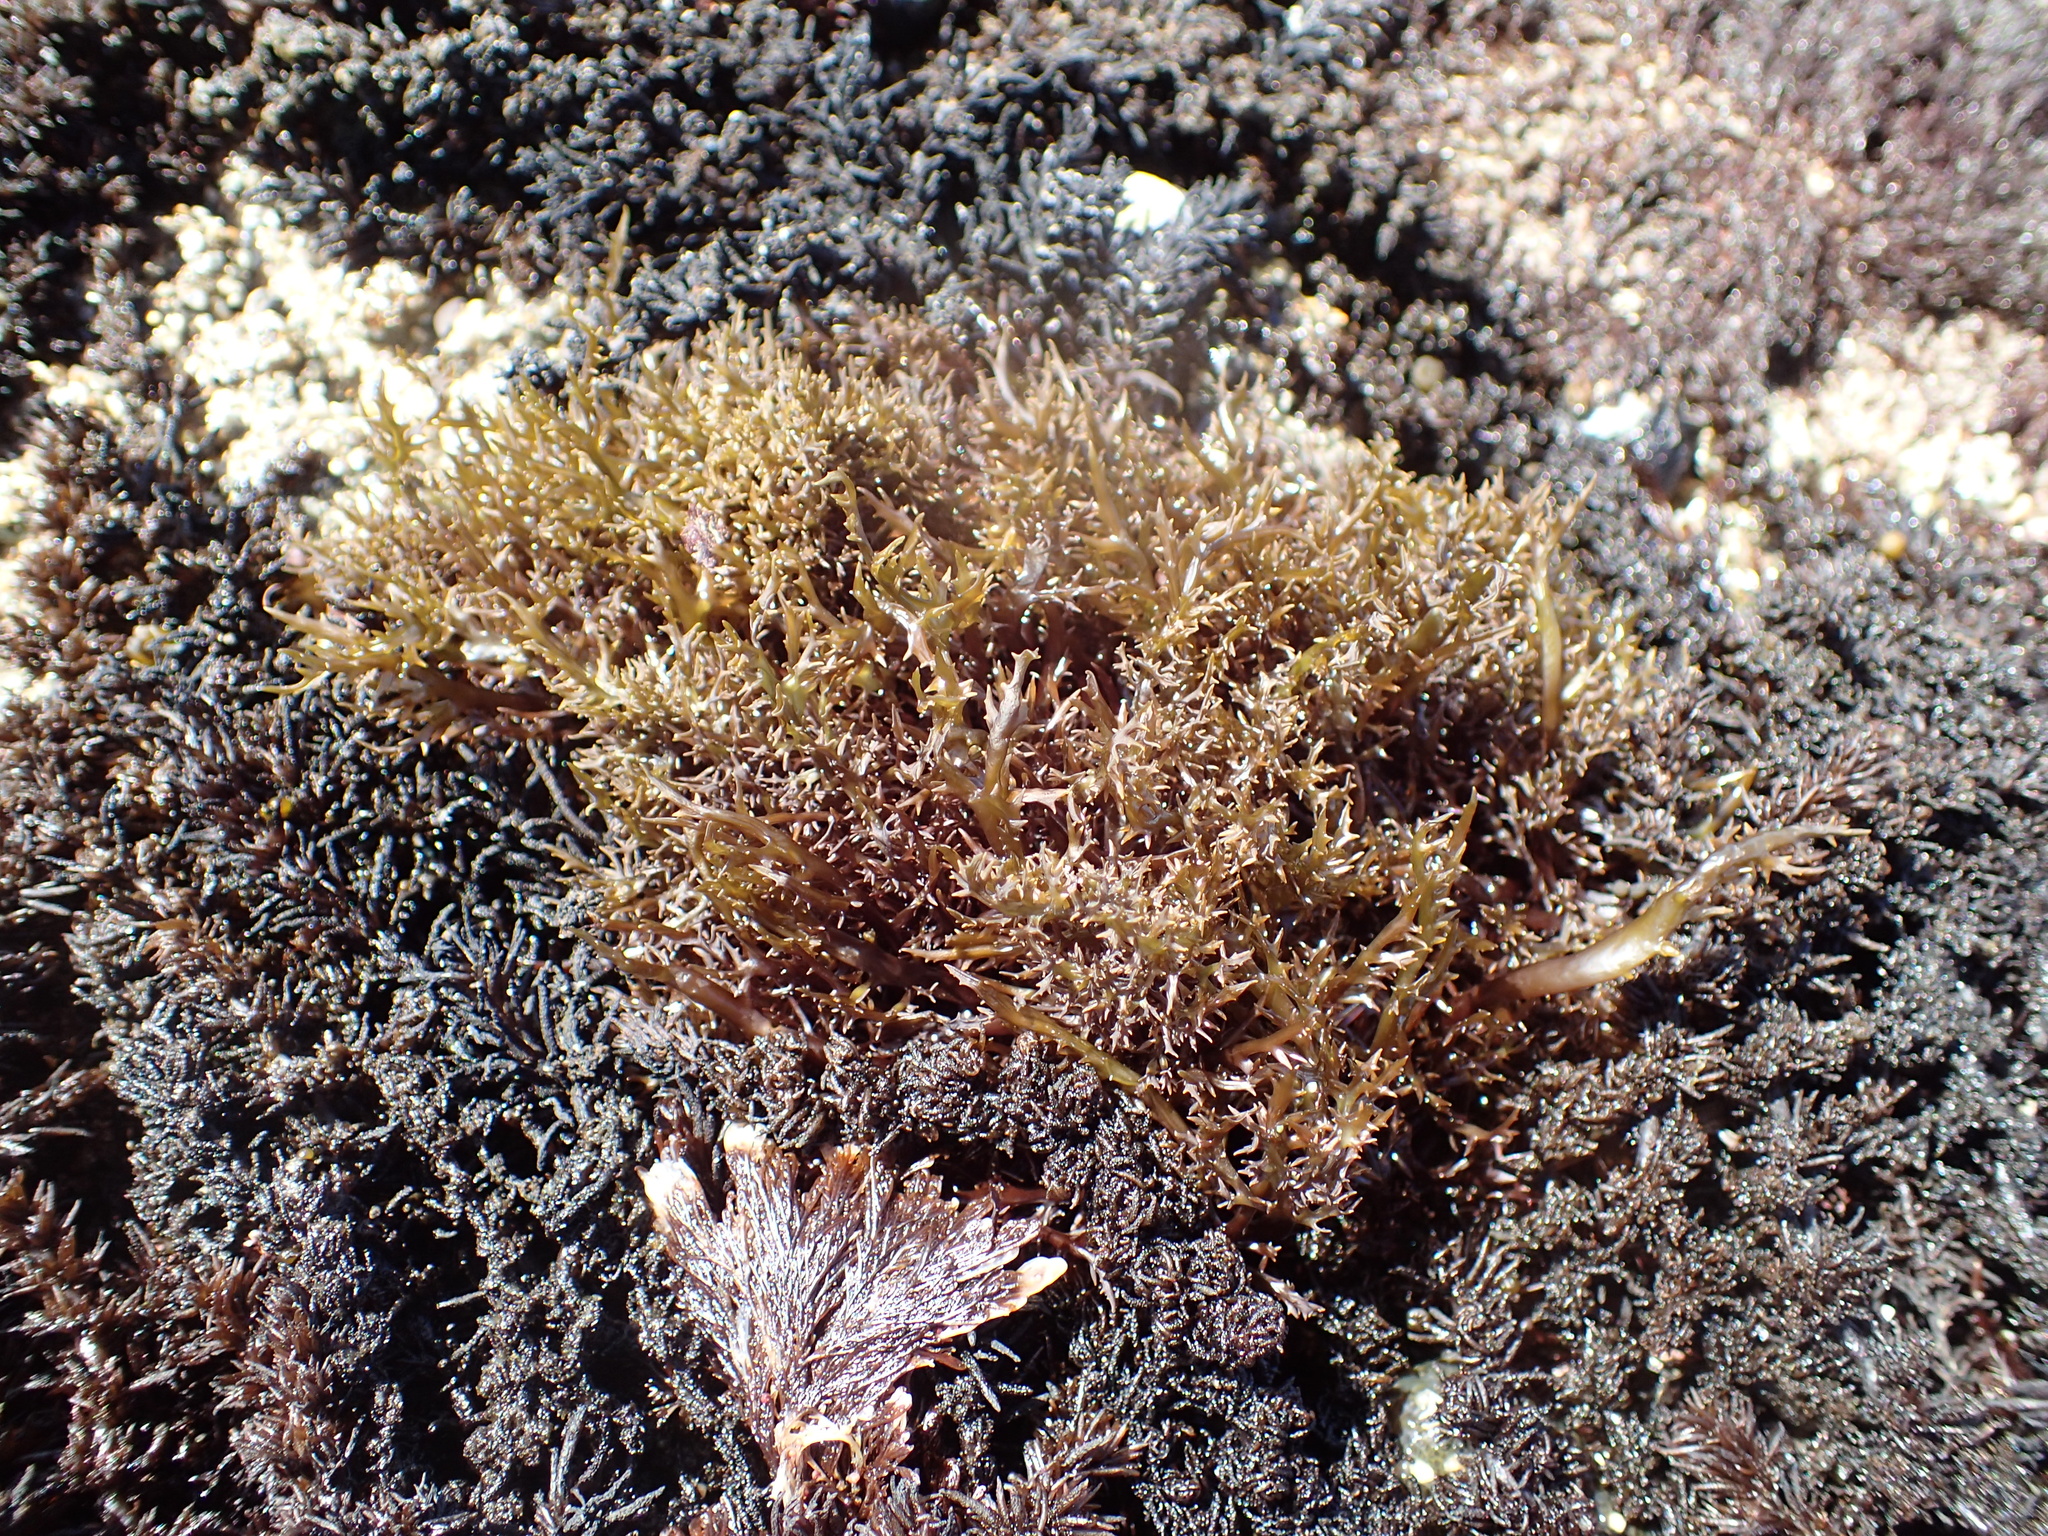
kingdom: Plantae
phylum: Rhodophyta
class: Florideophyceae
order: Gigartinales
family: Gigartinaceae
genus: Chondracanthus
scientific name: Chondracanthus canaliculatus
